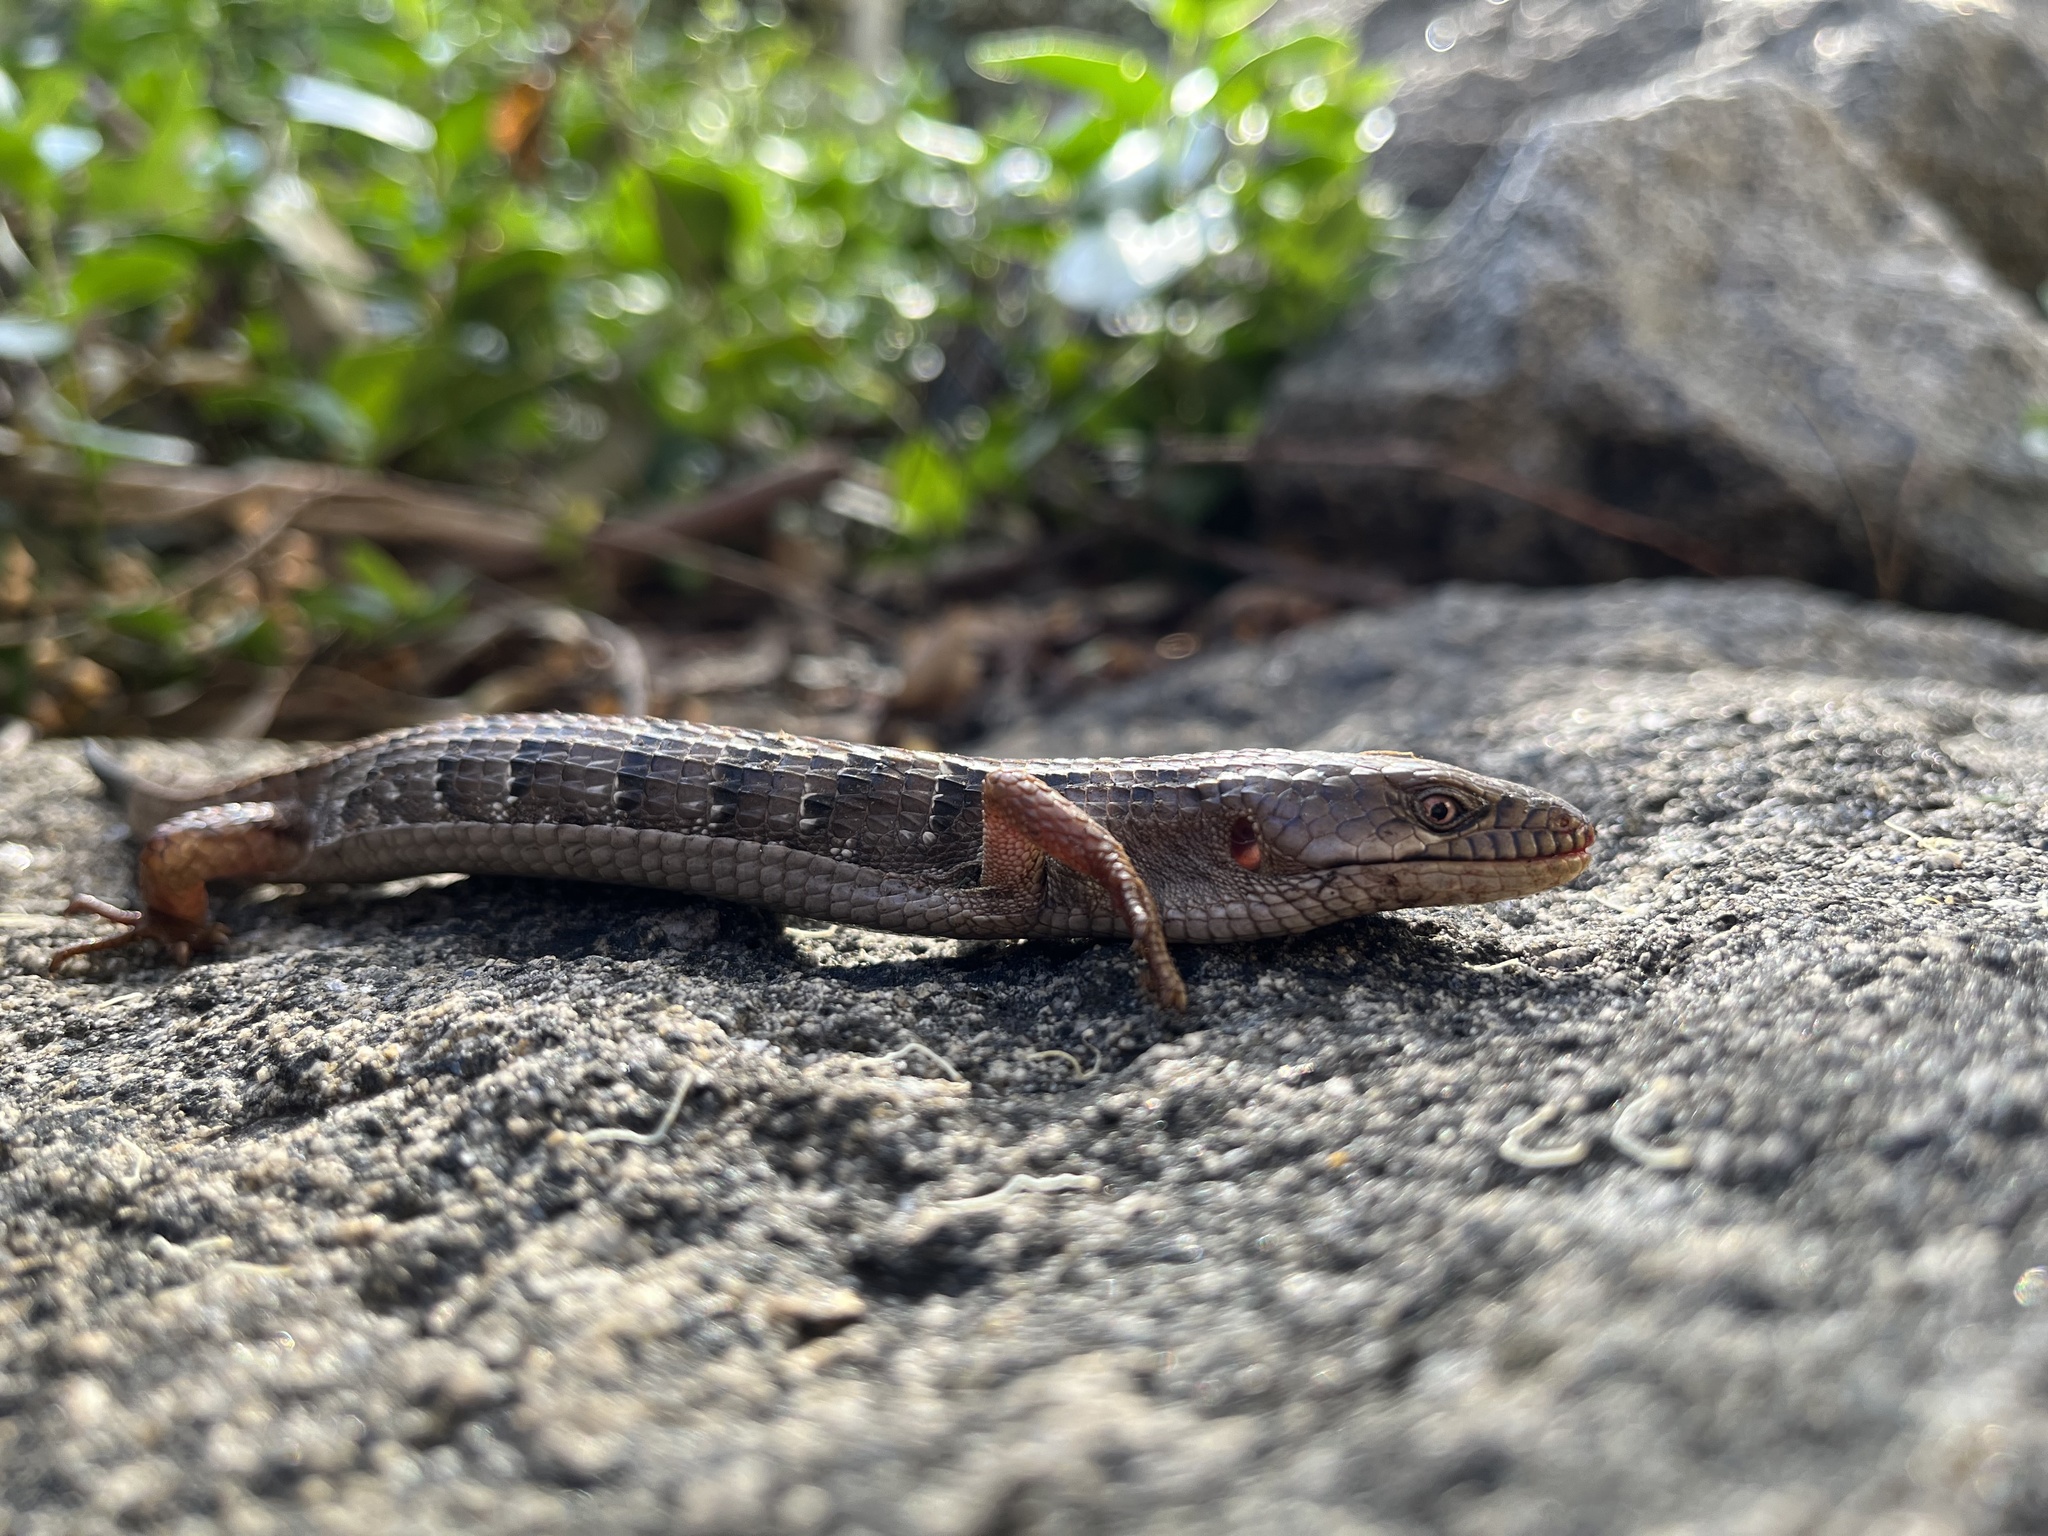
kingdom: Animalia
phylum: Chordata
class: Squamata
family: Anguidae
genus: Elgaria
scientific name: Elgaria multicarinata
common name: Southern alligator lizard
